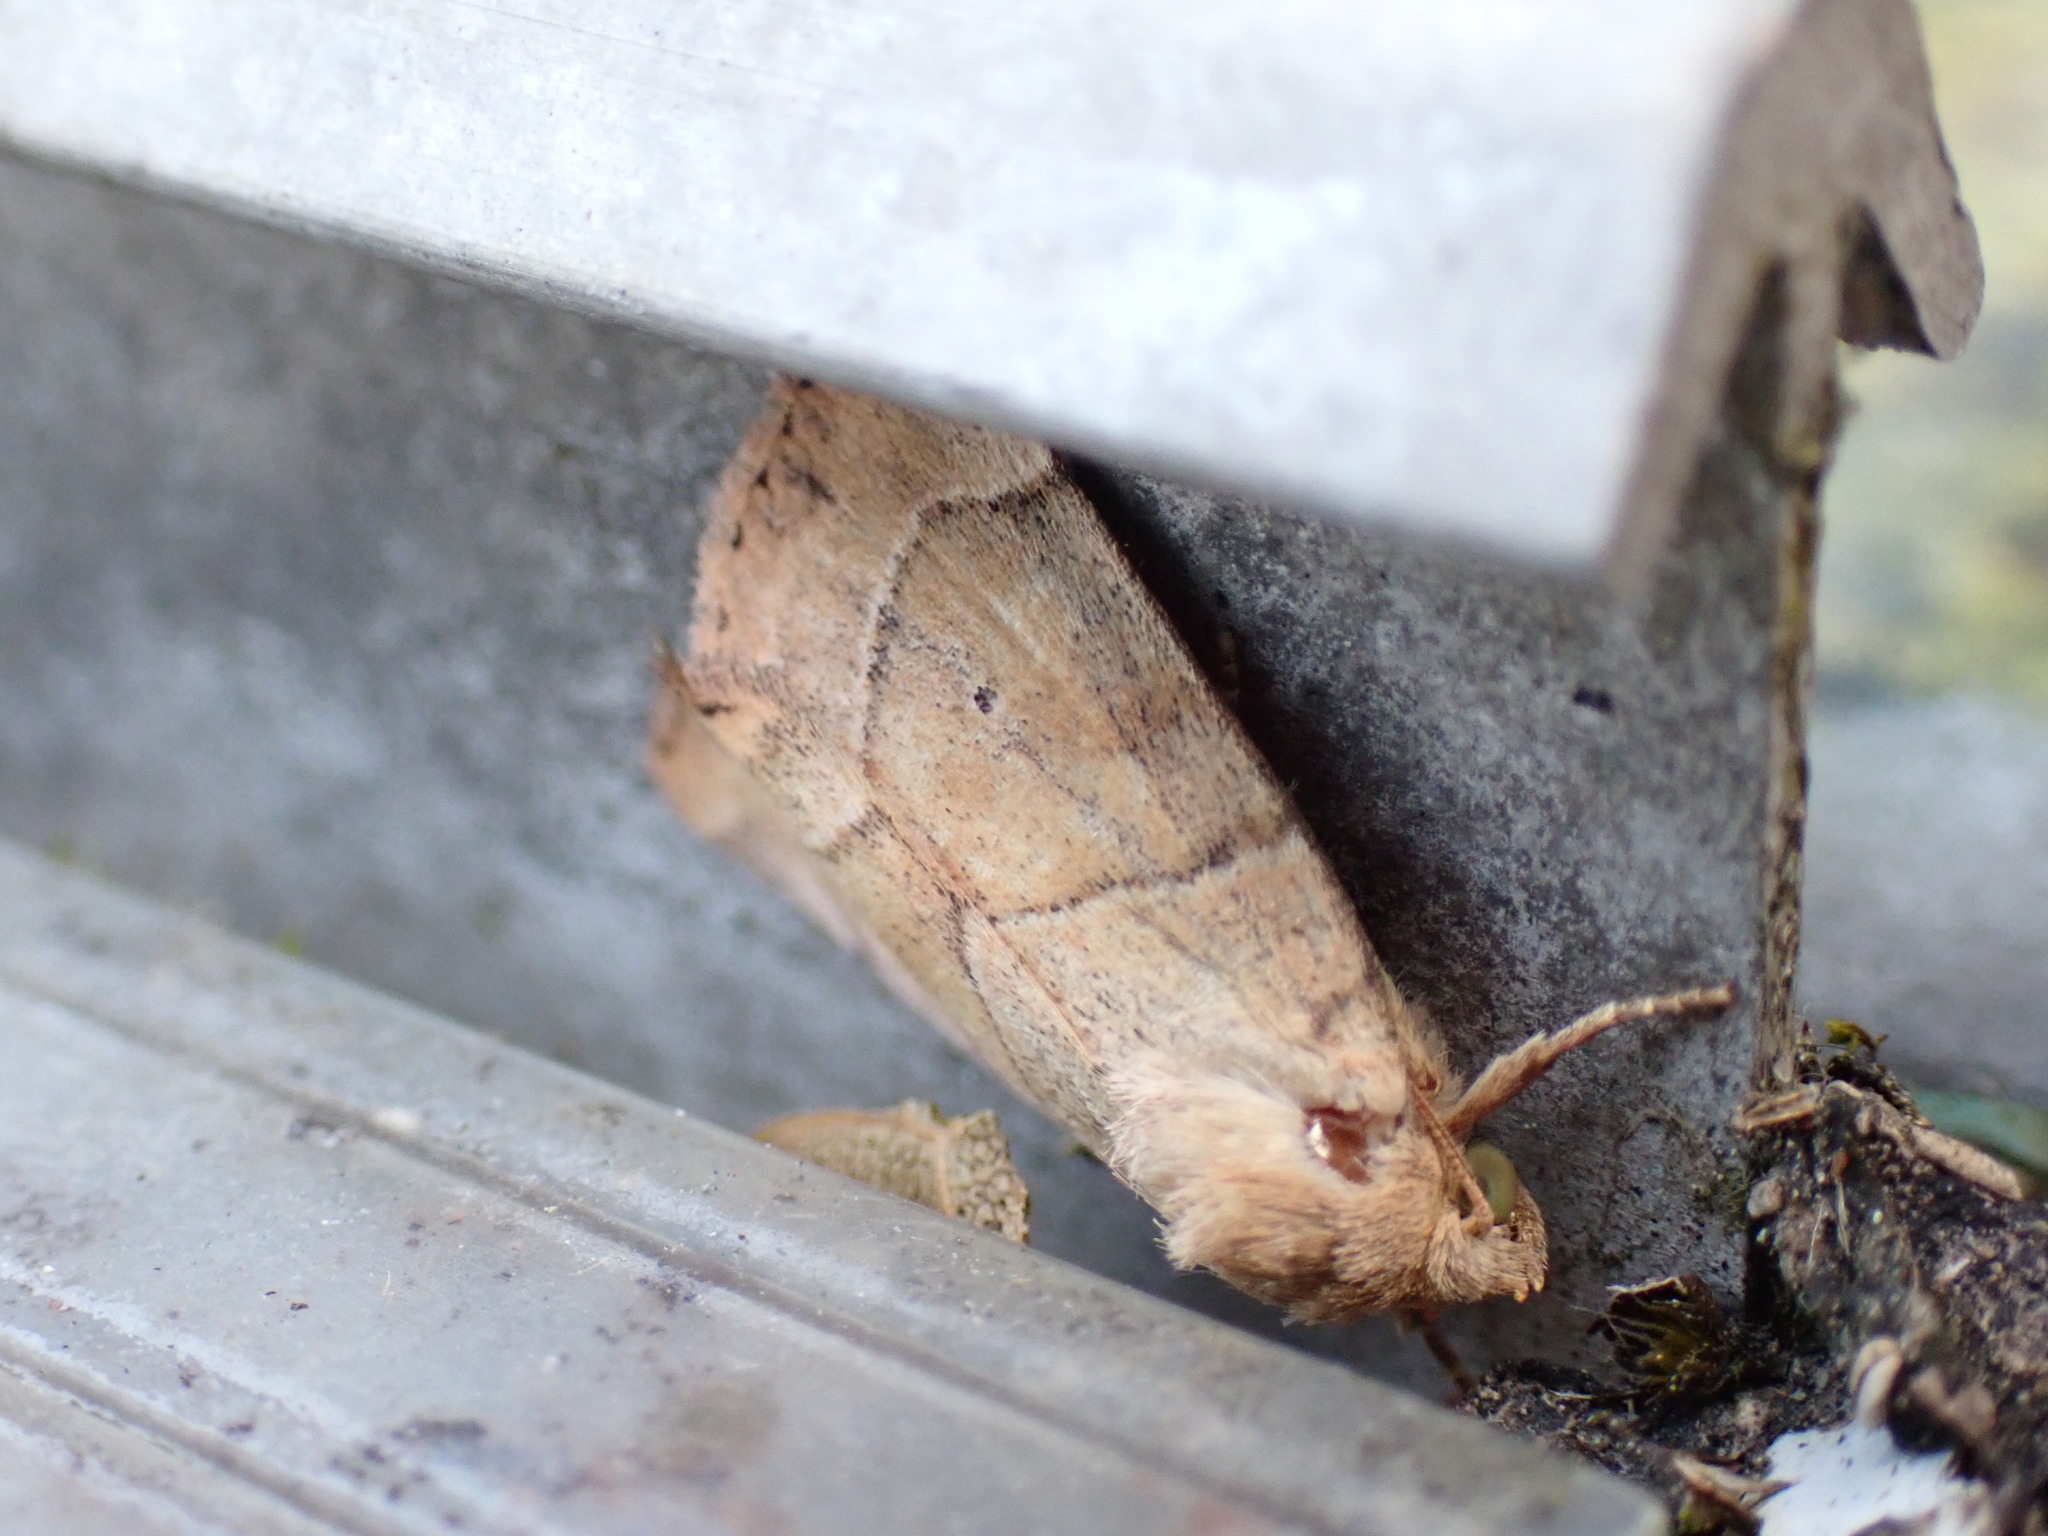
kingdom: Animalia
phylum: Arthropoda
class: Insecta
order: Lepidoptera
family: Noctuidae
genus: Cosmia
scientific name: Cosmia trapezina
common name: Dun-bar
